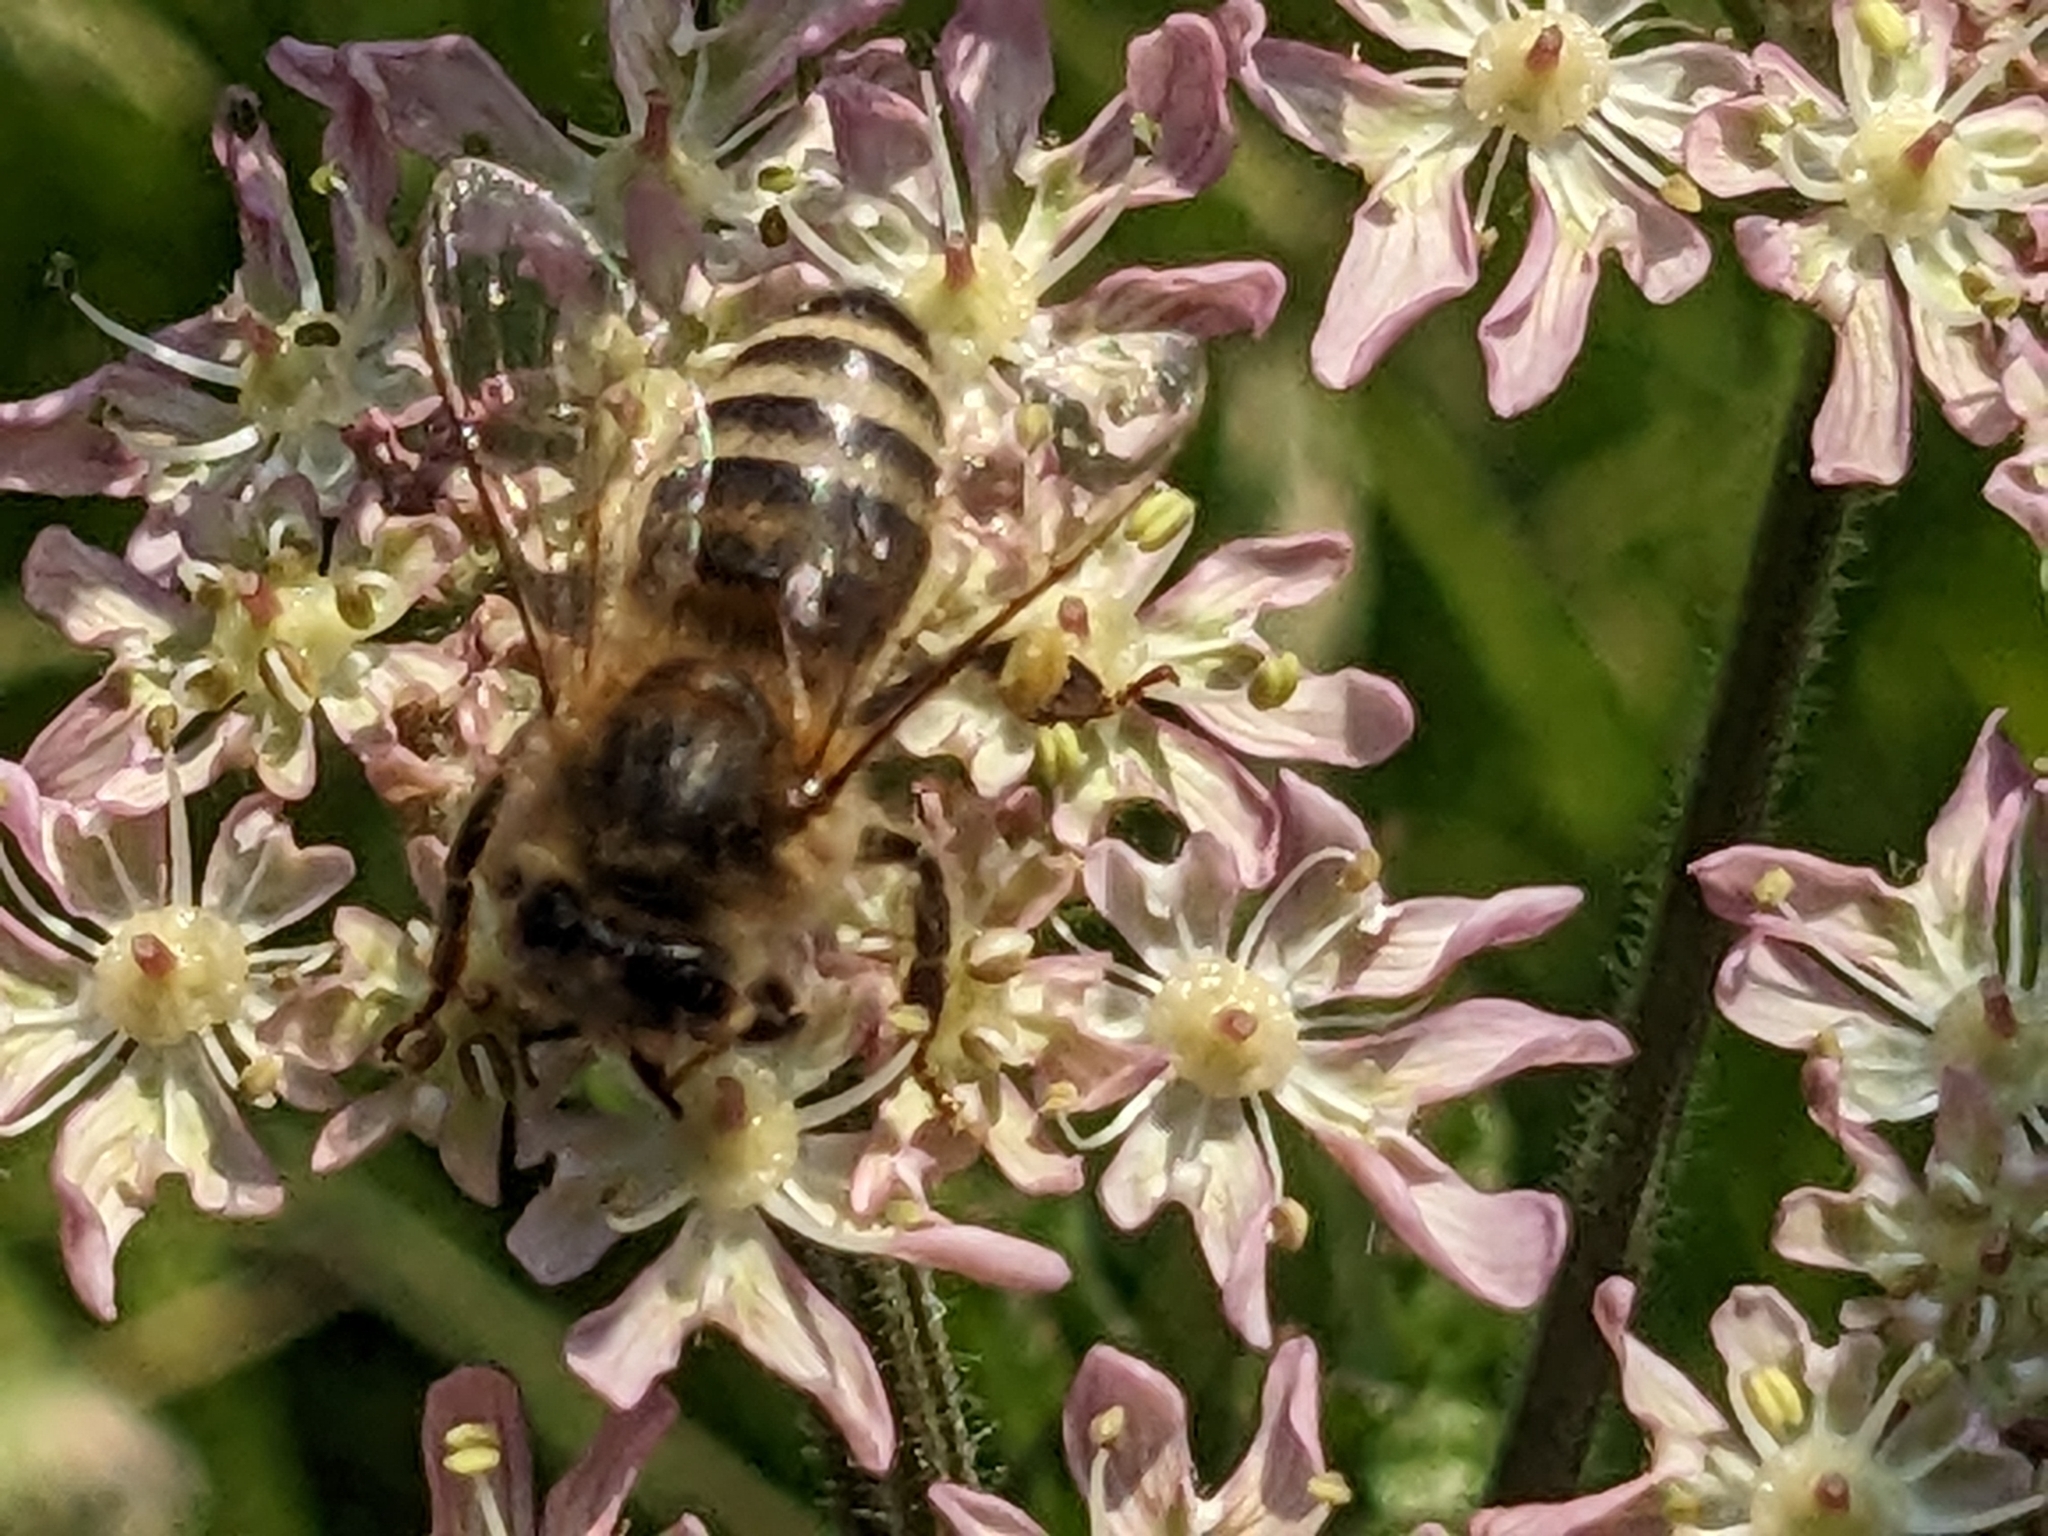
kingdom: Animalia
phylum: Arthropoda
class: Insecta
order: Hymenoptera
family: Apidae
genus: Apis
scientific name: Apis mellifera
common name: Honey bee
